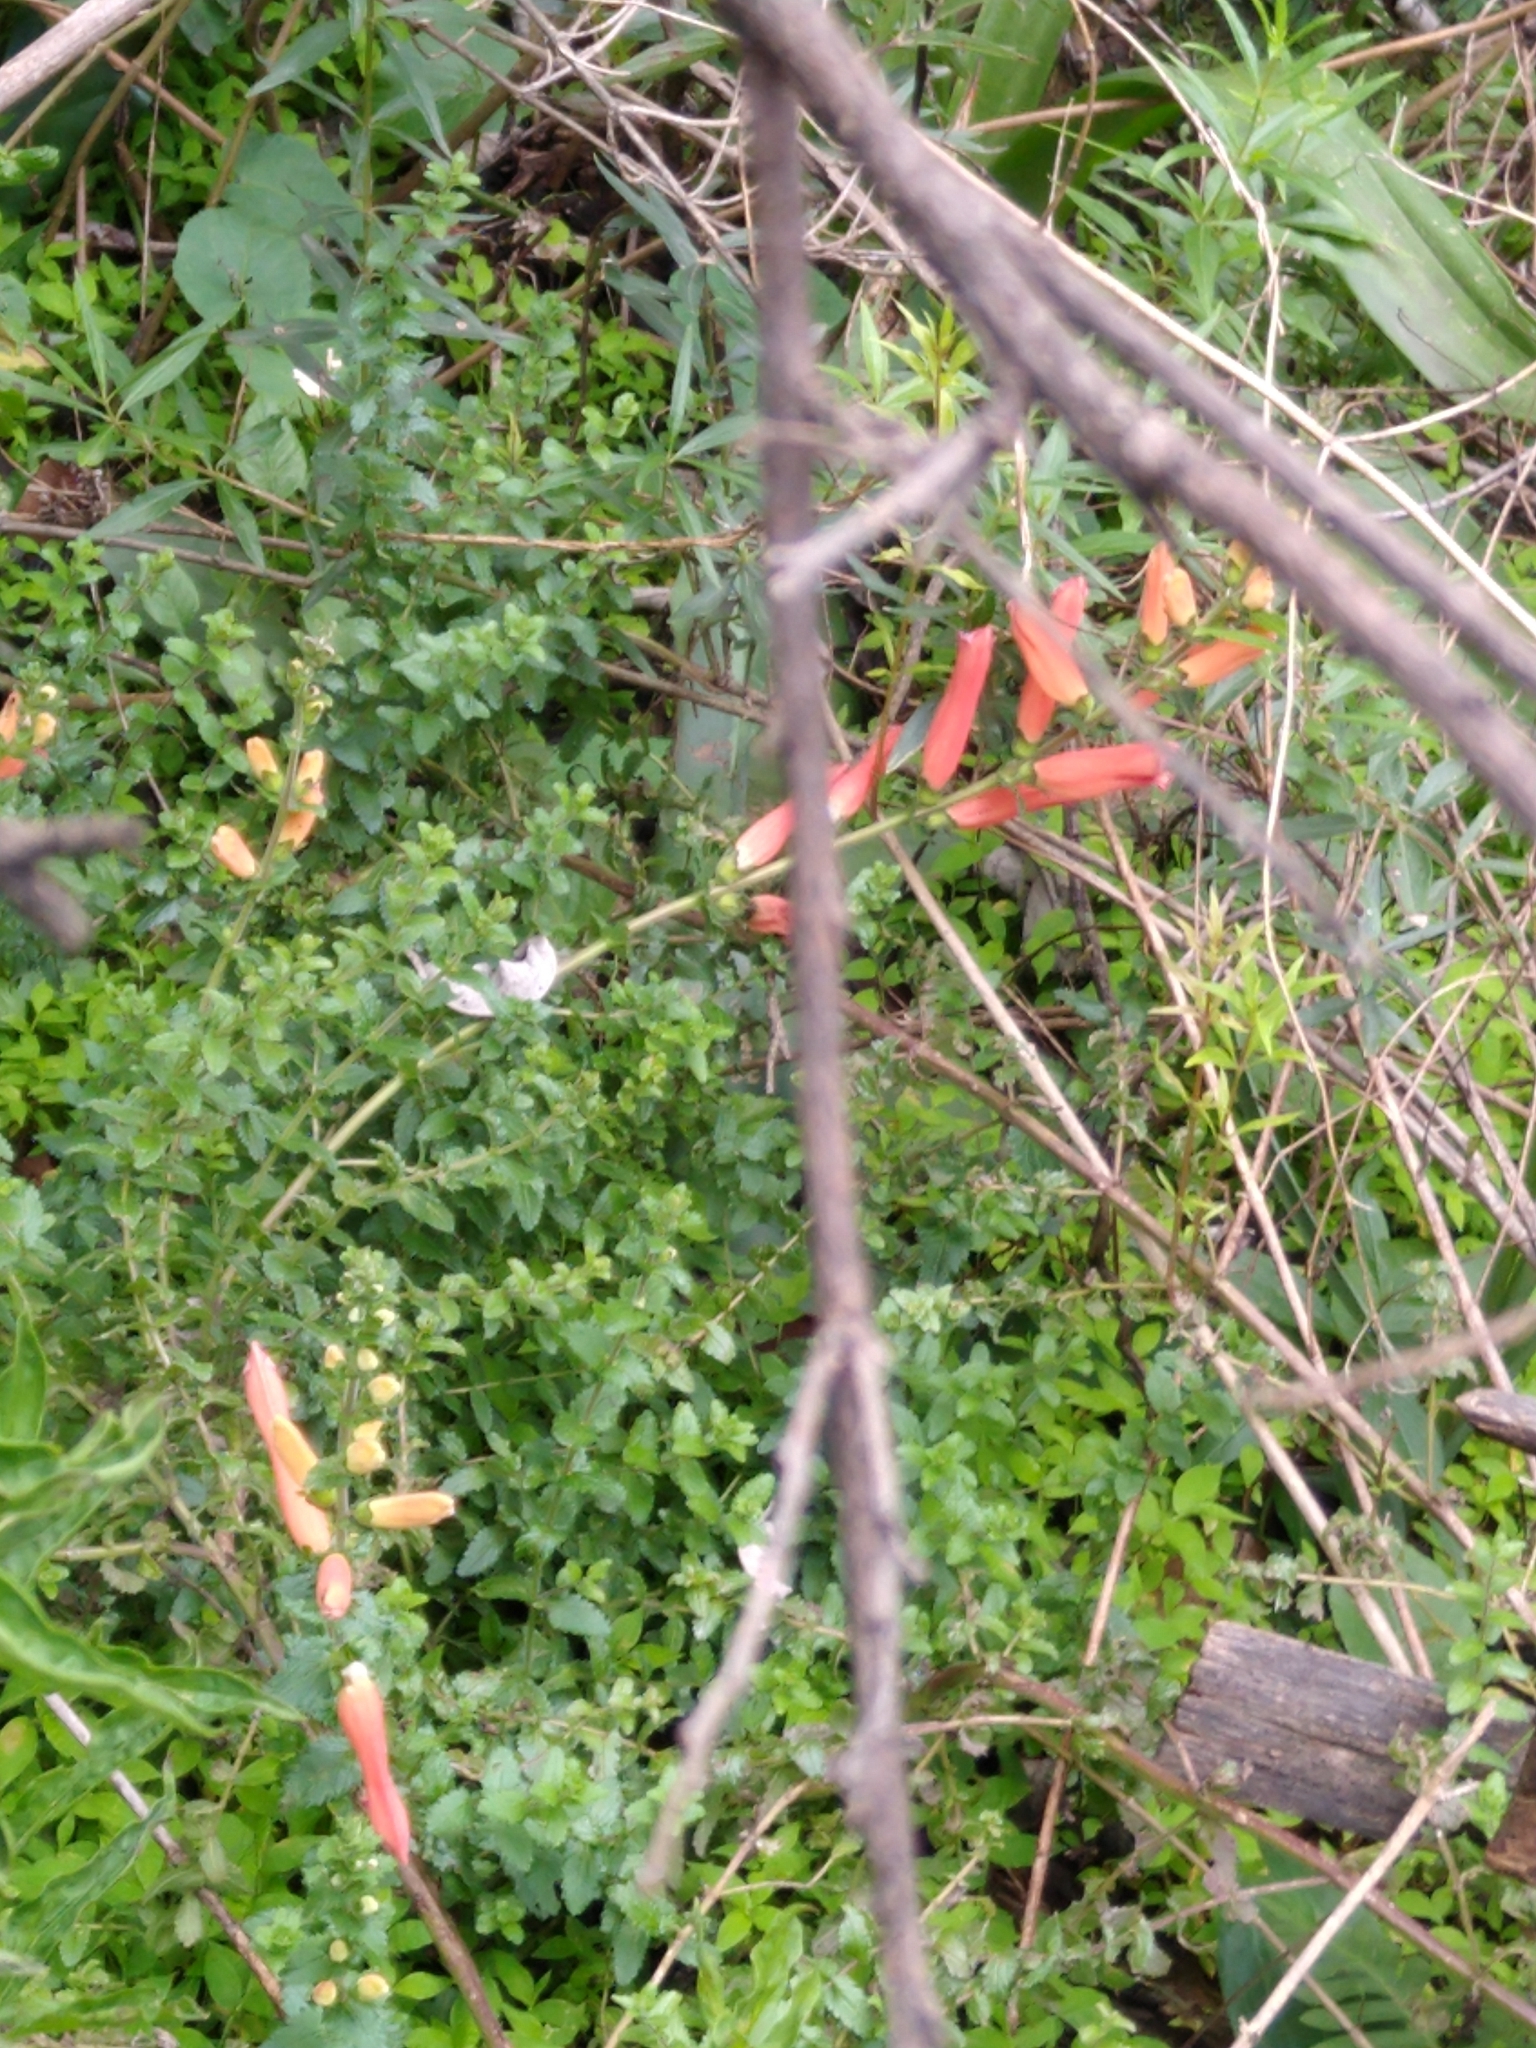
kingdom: Plantae
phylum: Tracheophyta
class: Magnoliopsida
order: Lamiales
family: Orobanchaceae
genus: Lamourouxia
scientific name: Lamourouxia rhinanthifolia
